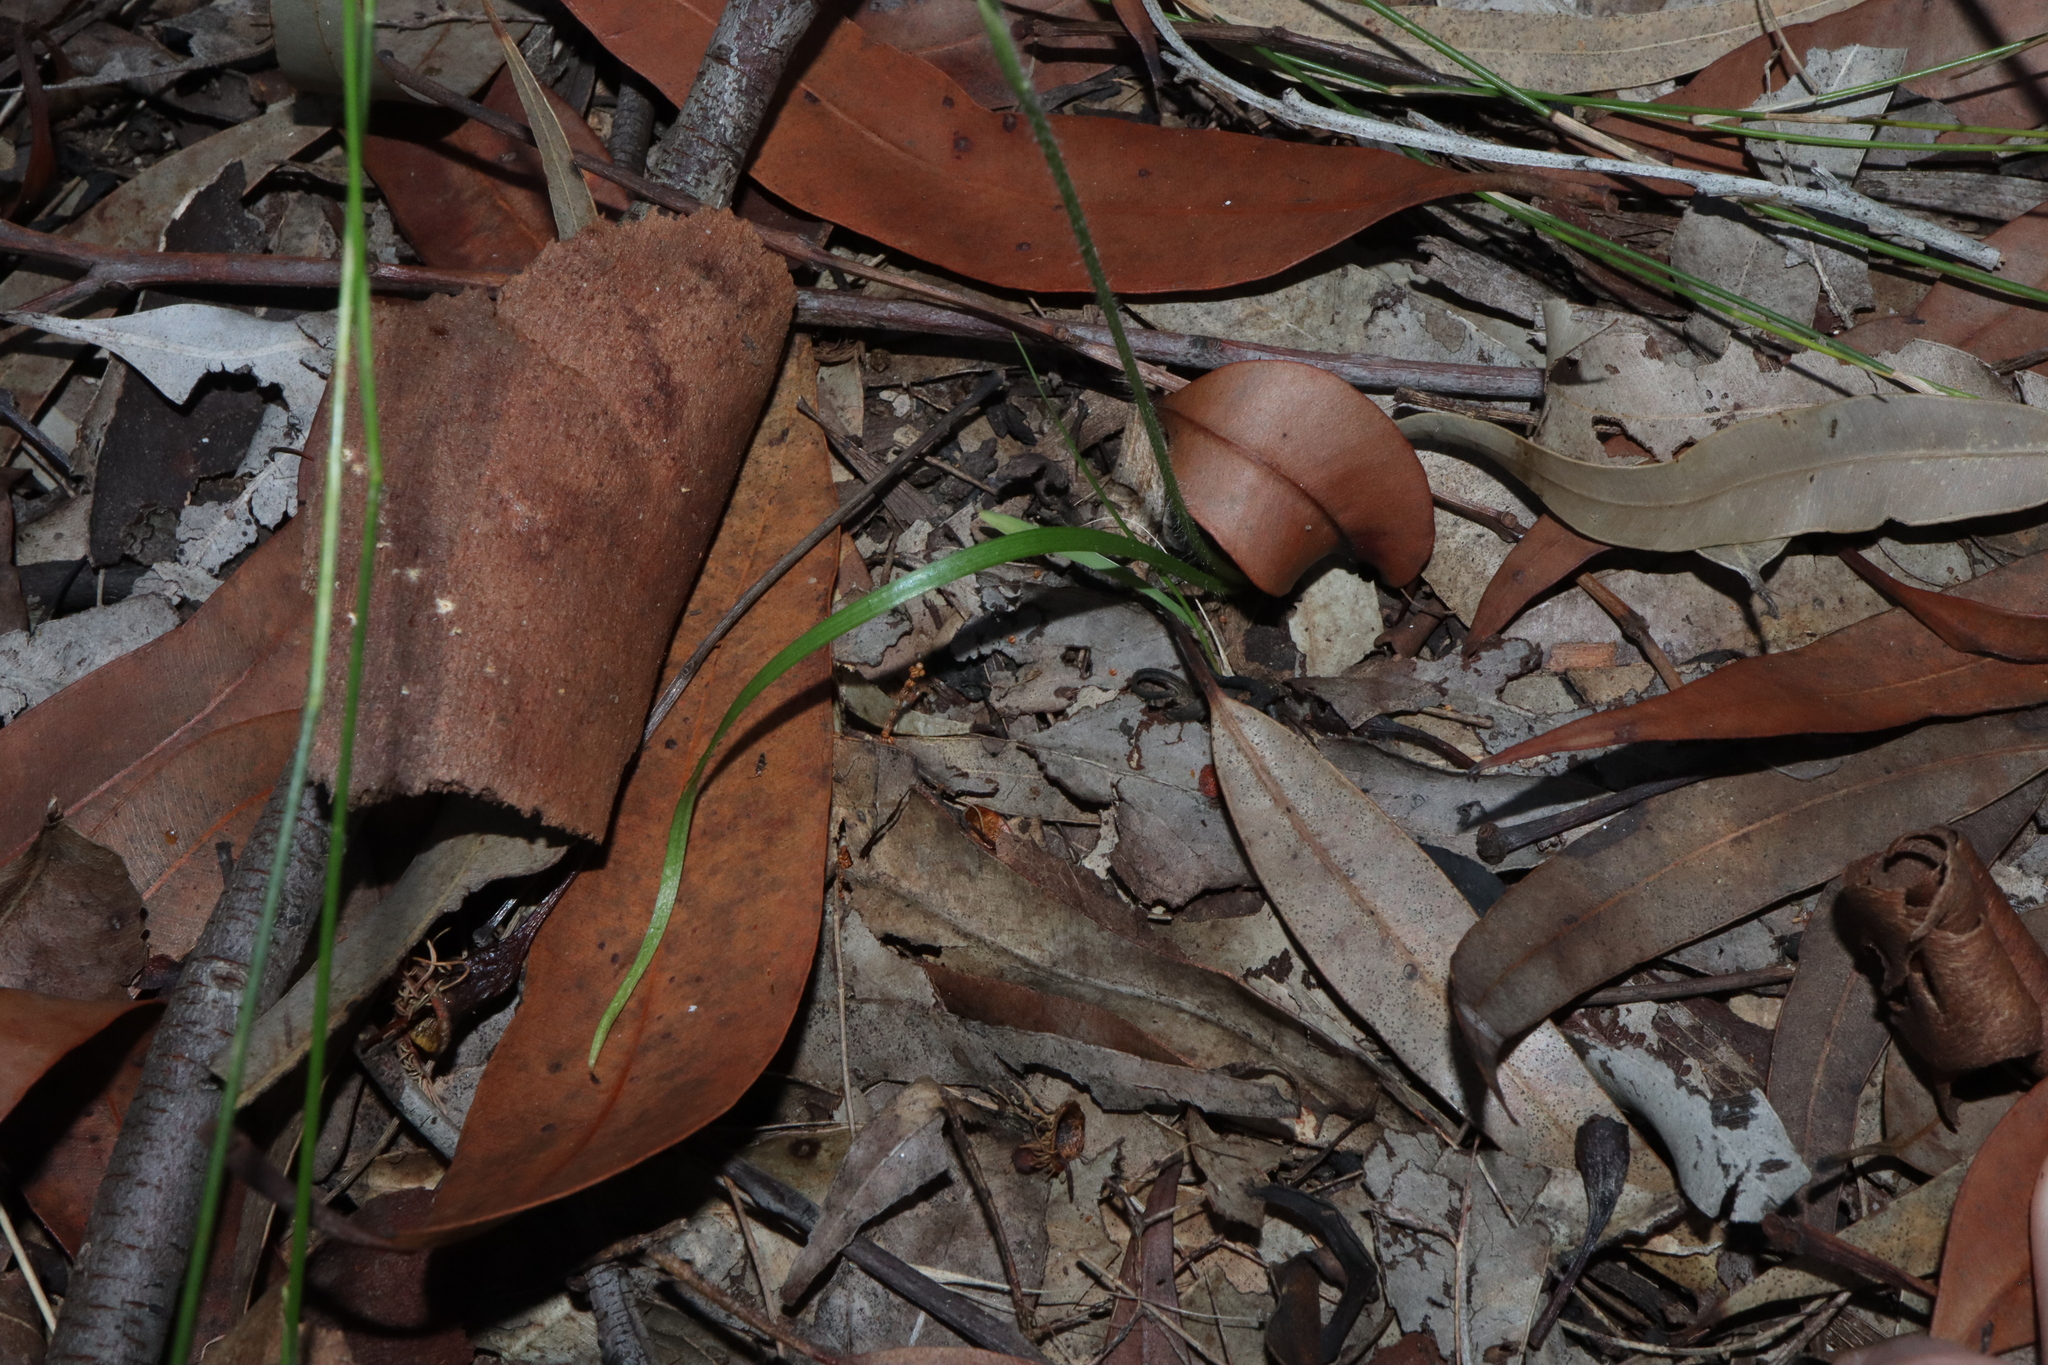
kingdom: Plantae
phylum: Tracheophyta
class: Liliopsida
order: Asparagales
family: Orchidaceae
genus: Caladenia
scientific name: Caladenia catenata
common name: White caladenia
